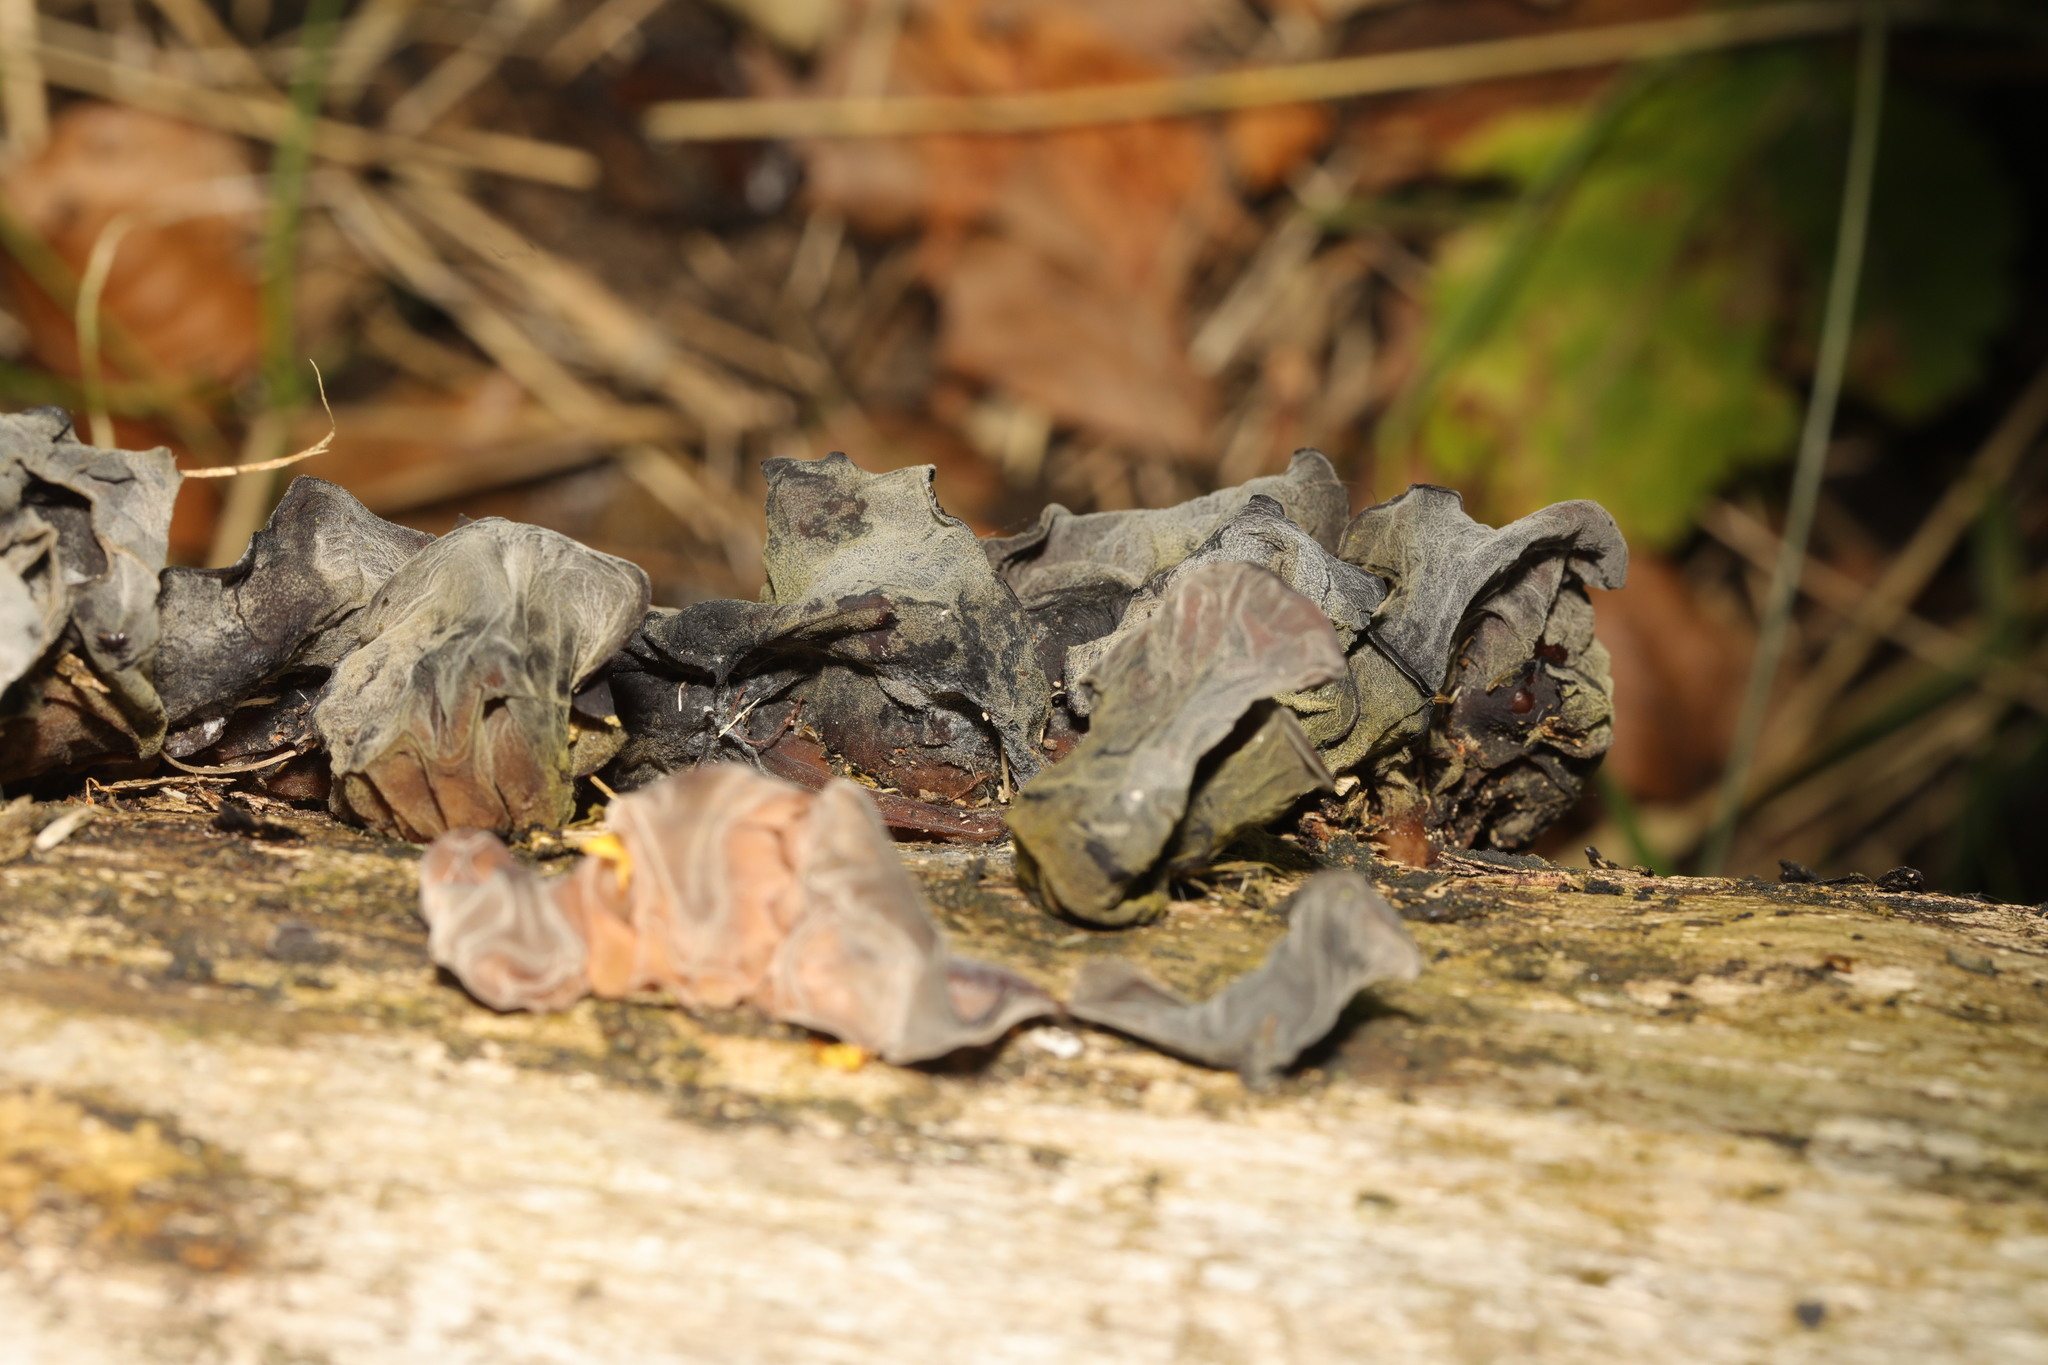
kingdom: Fungi
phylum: Basidiomycota
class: Agaricomycetes
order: Auriculariales
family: Auriculariaceae
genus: Auricularia
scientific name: Auricularia auricula-judae
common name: Jelly ear
